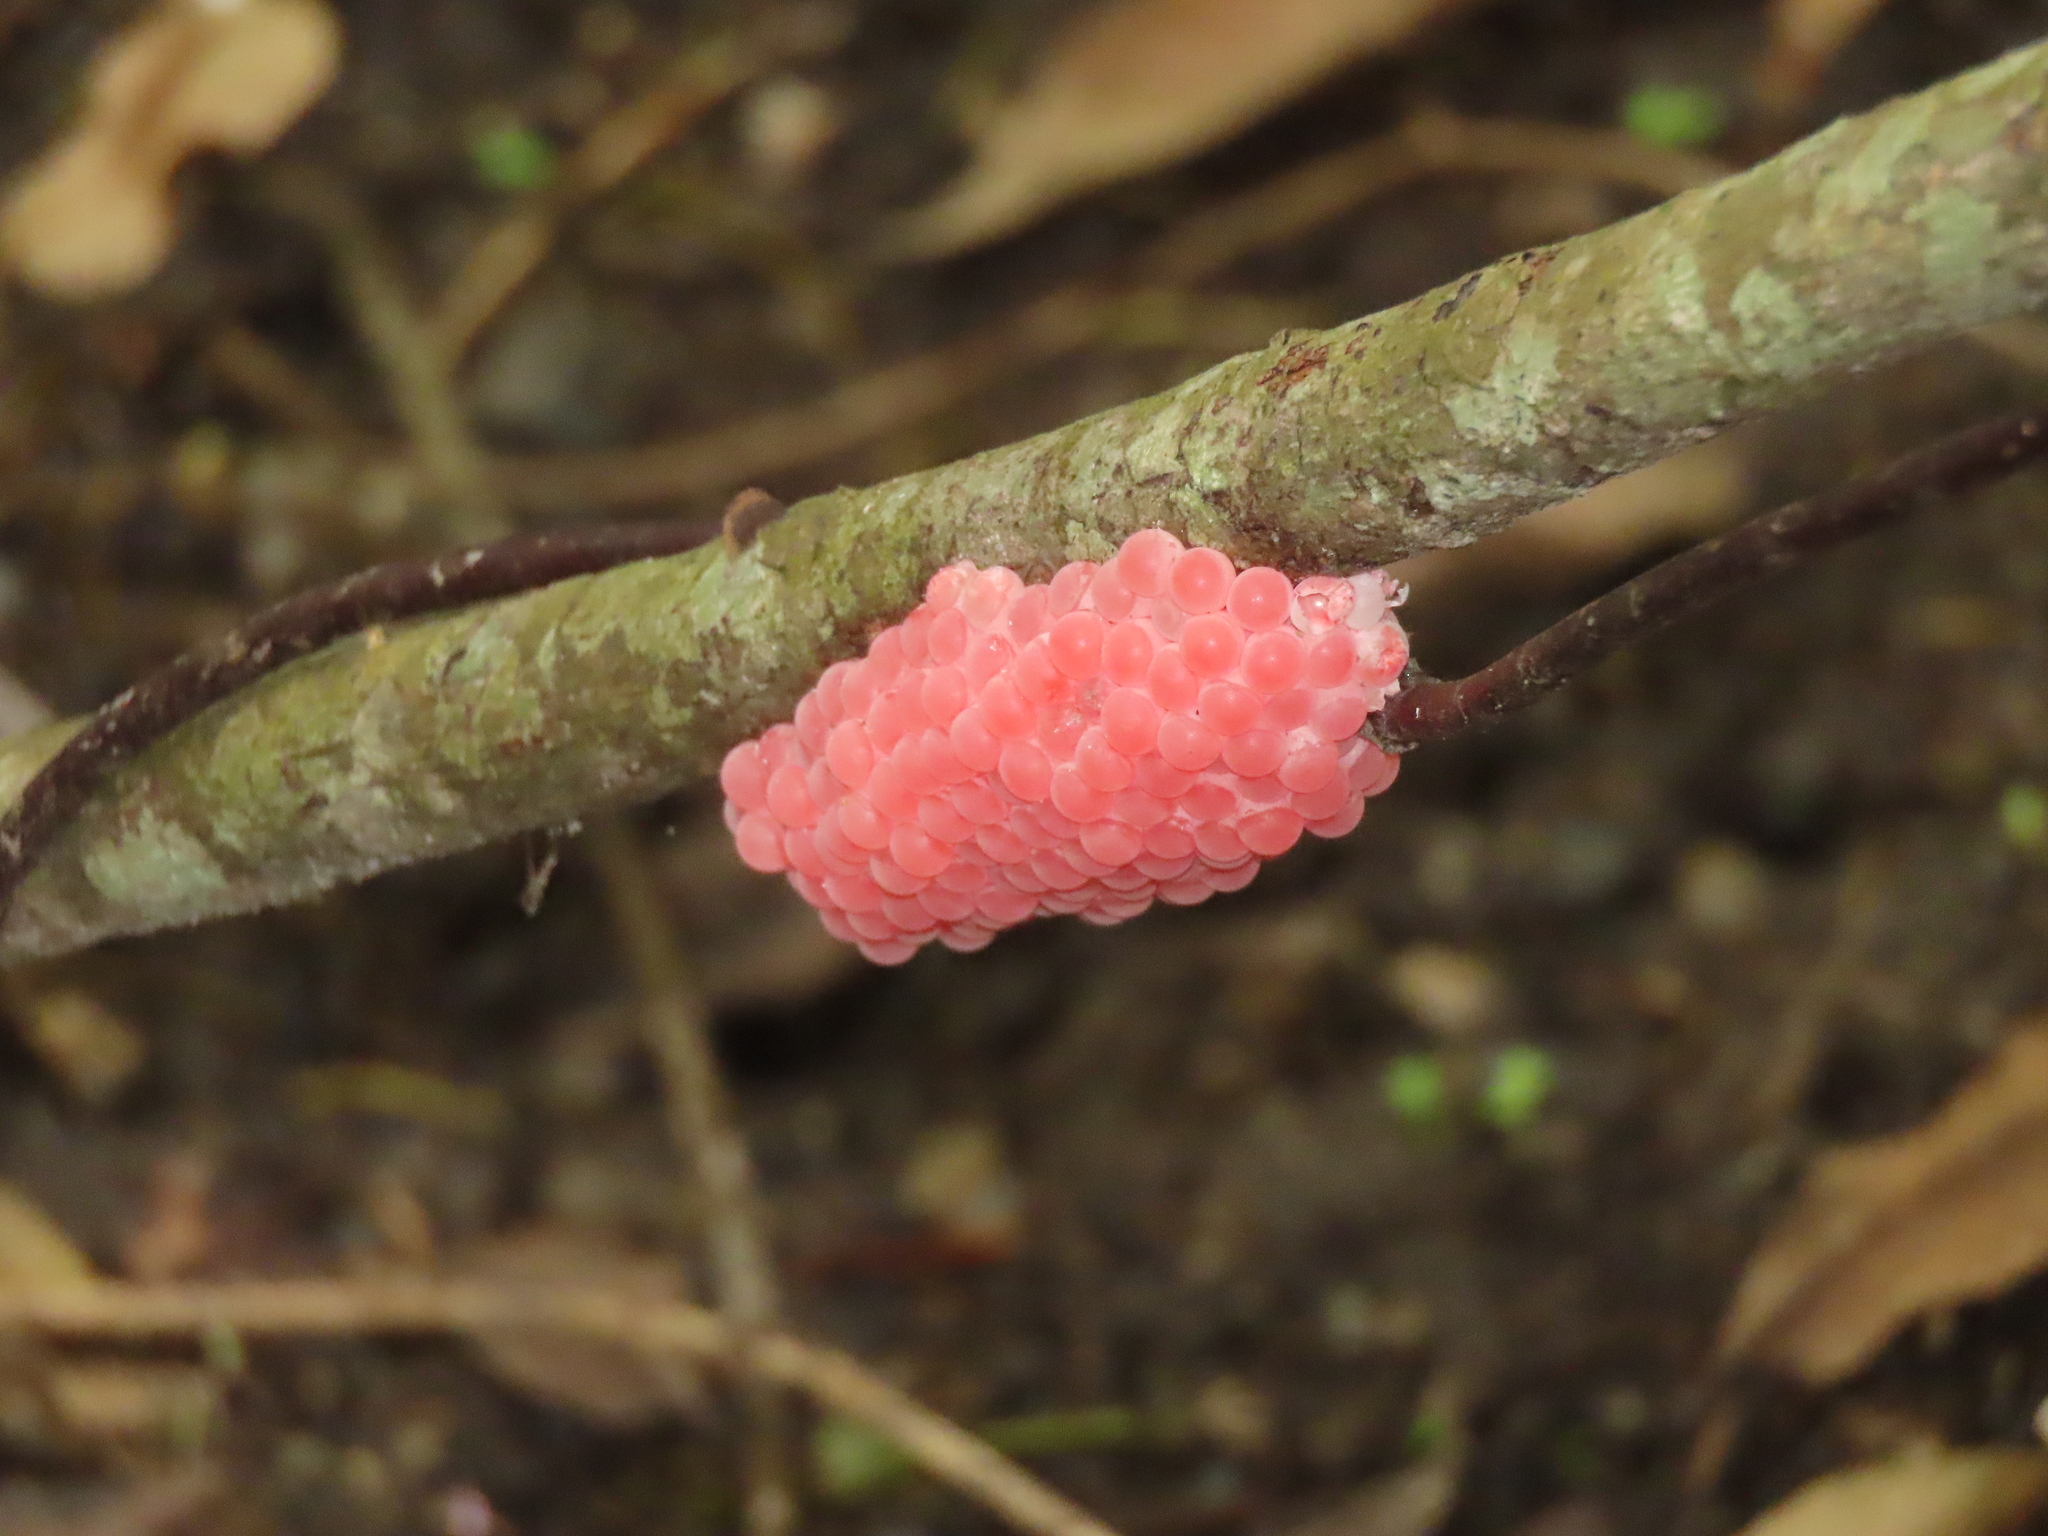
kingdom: Animalia
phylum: Mollusca
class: Gastropoda
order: Architaenioglossa
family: Ampullariidae
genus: Pomacea
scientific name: Pomacea canaliculata
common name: Channeled applesnail
